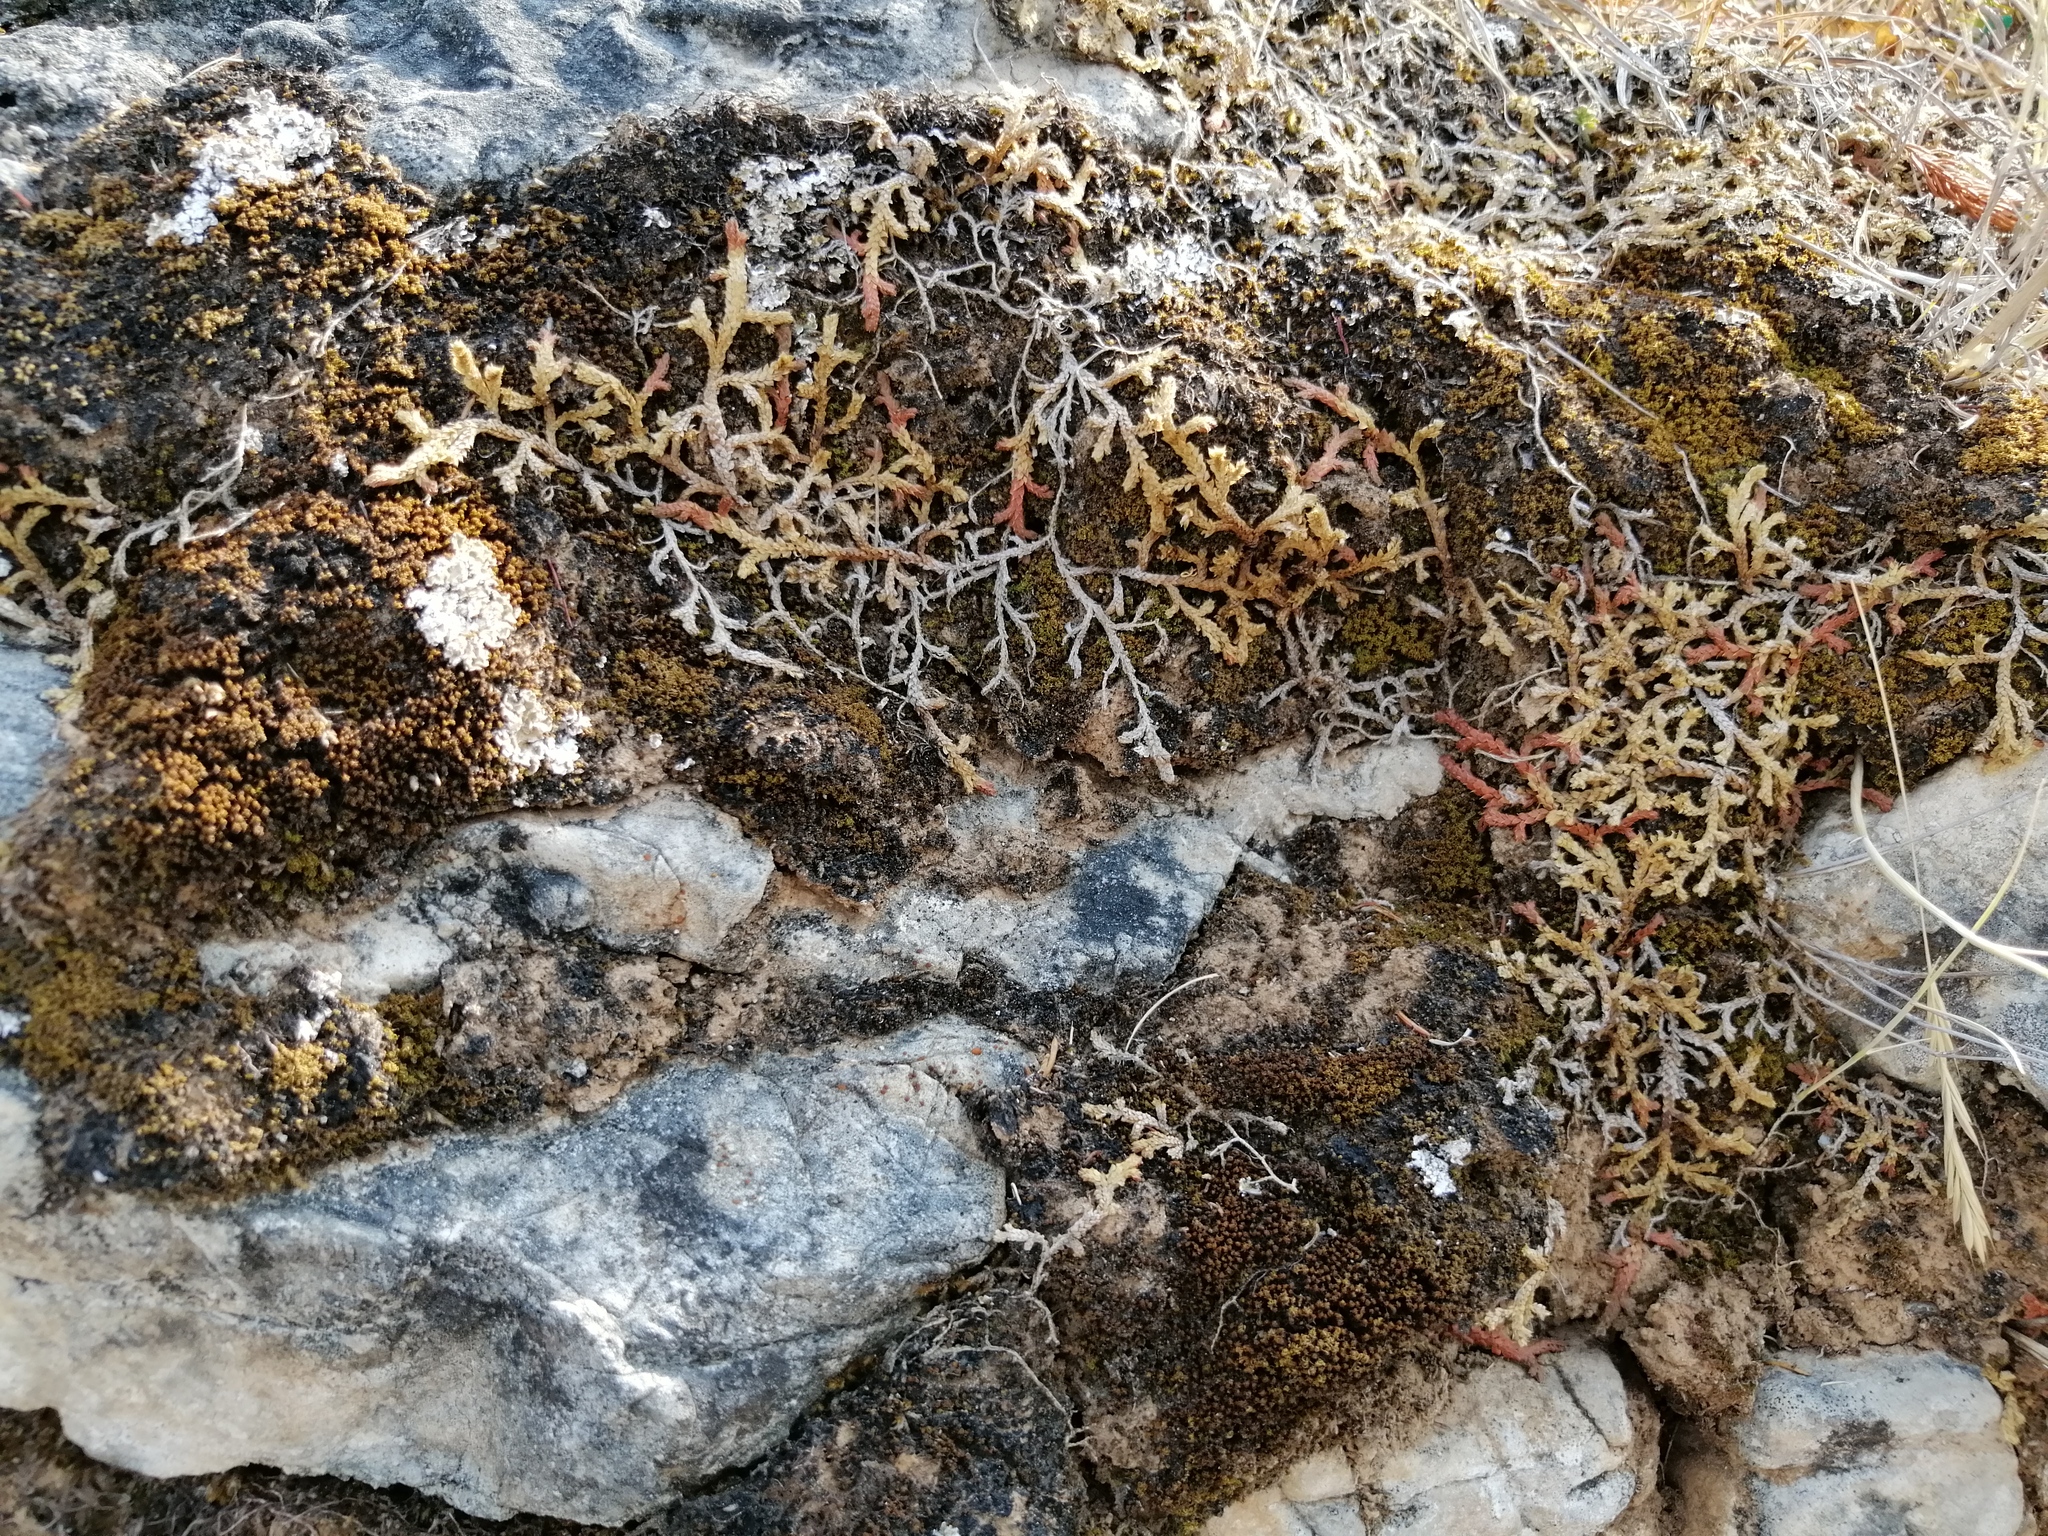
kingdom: Plantae
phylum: Tracheophyta
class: Lycopodiopsida
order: Selaginellales
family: Selaginellaceae
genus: Selaginella
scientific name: Selaginella denticulata
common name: Toothed-leaved clubmoss
